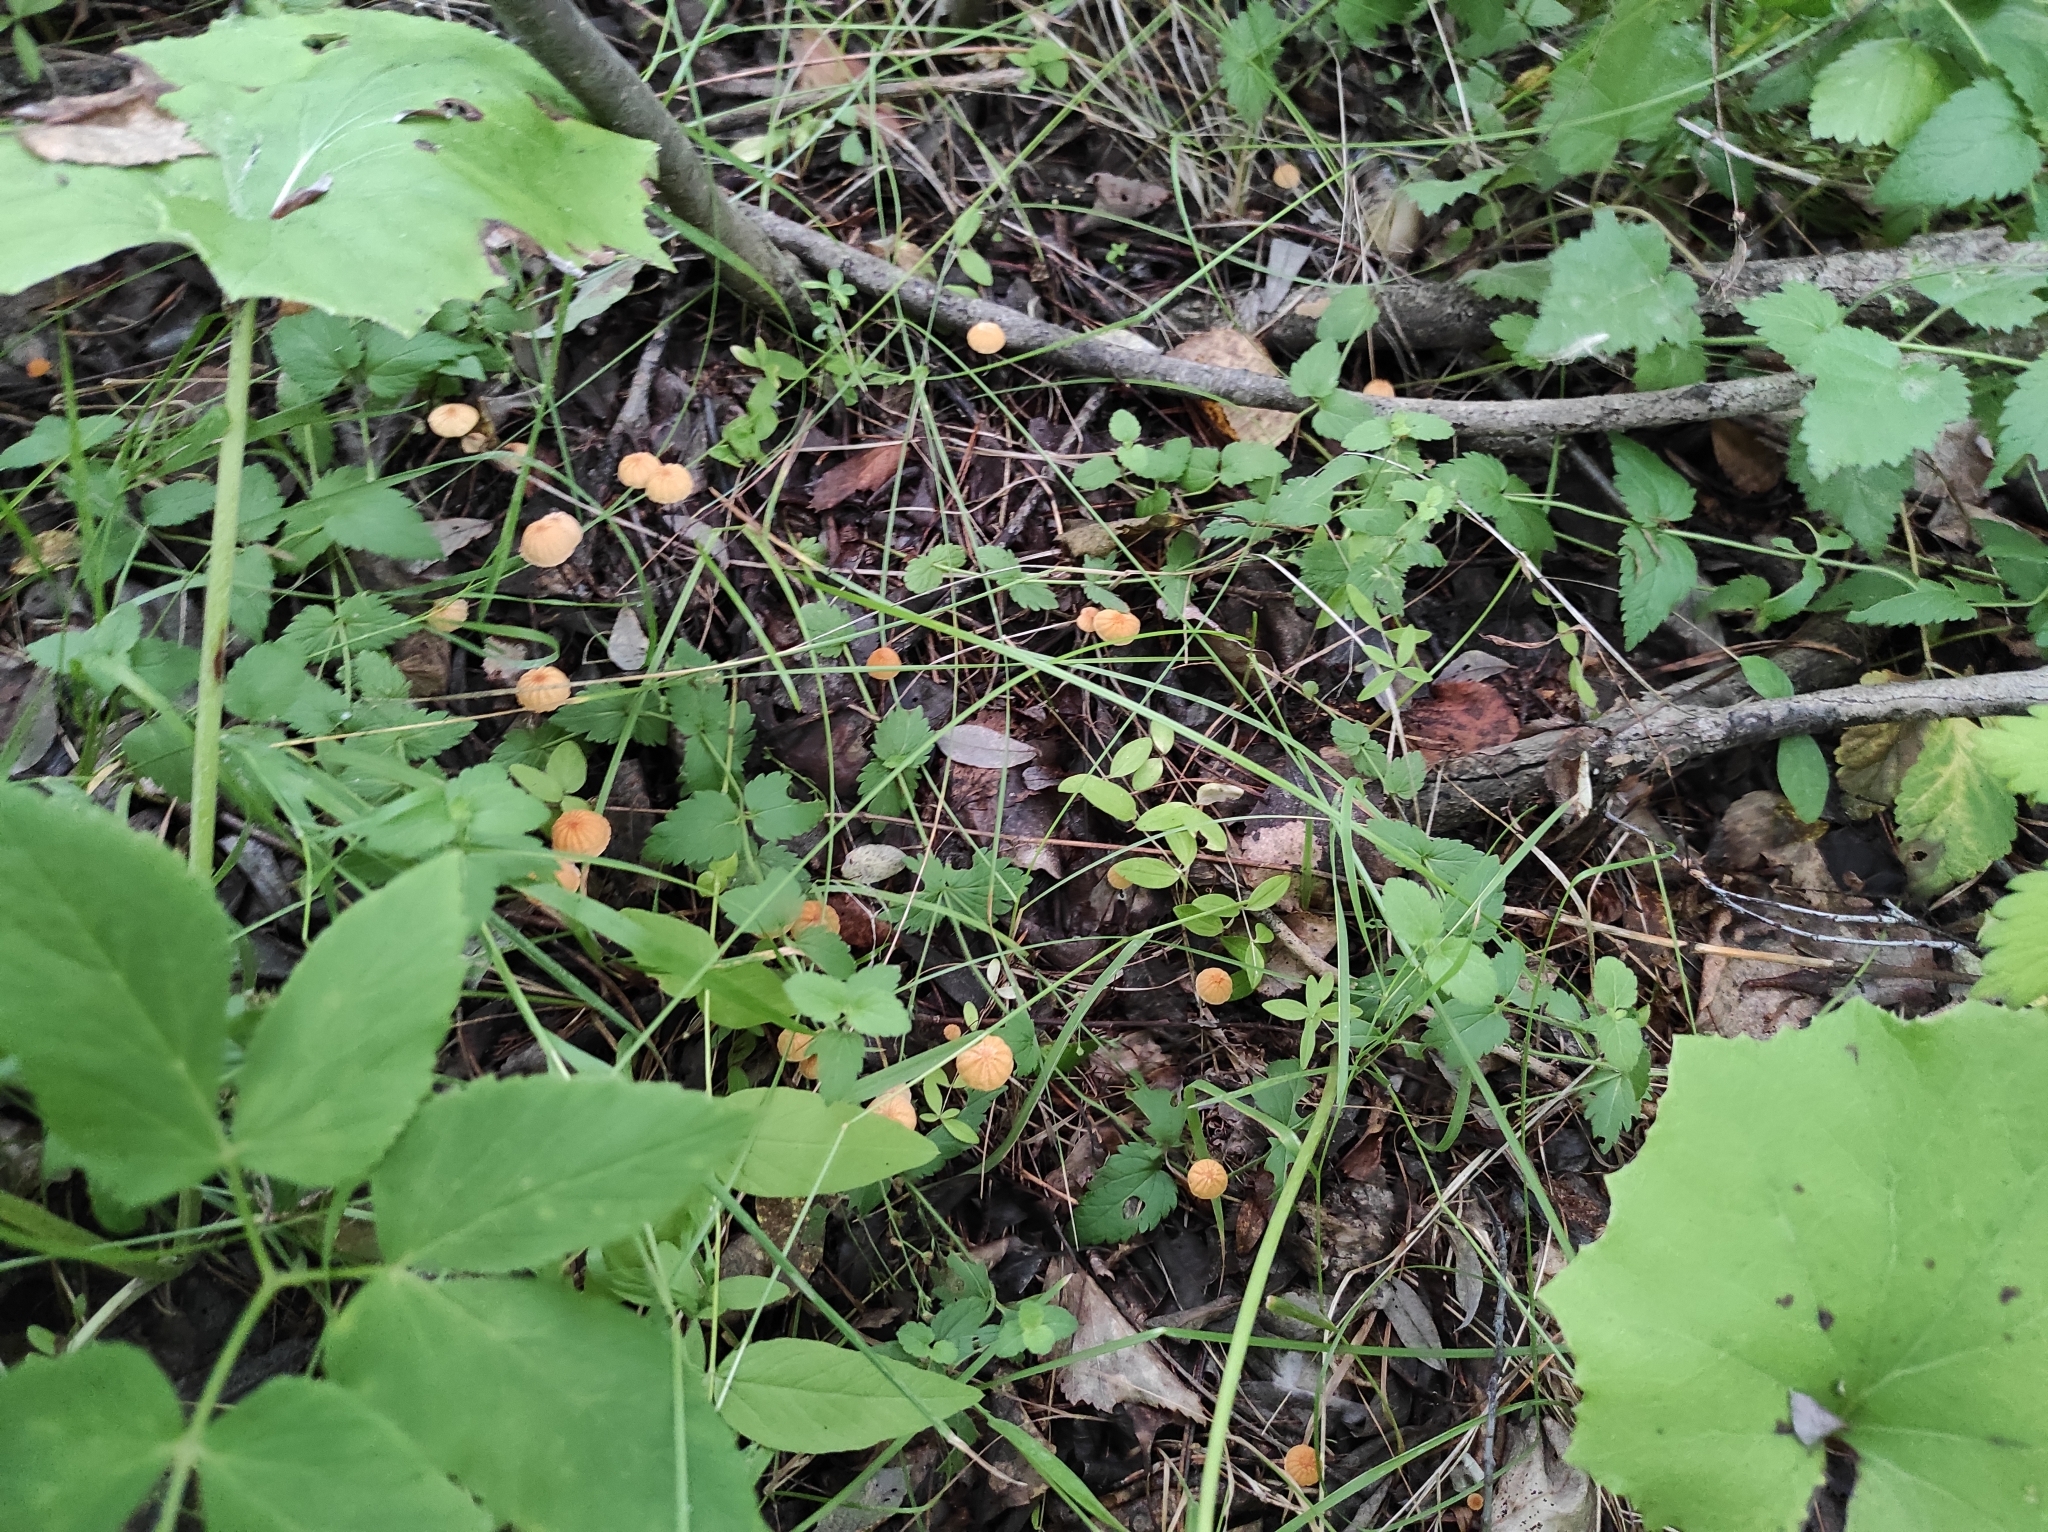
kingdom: Fungi
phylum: Basidiomycota
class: Agaricomycetes
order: Agaricales
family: Marasmiaceae
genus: Marasmius
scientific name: Marasmius siccus
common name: Orange pinwheel
